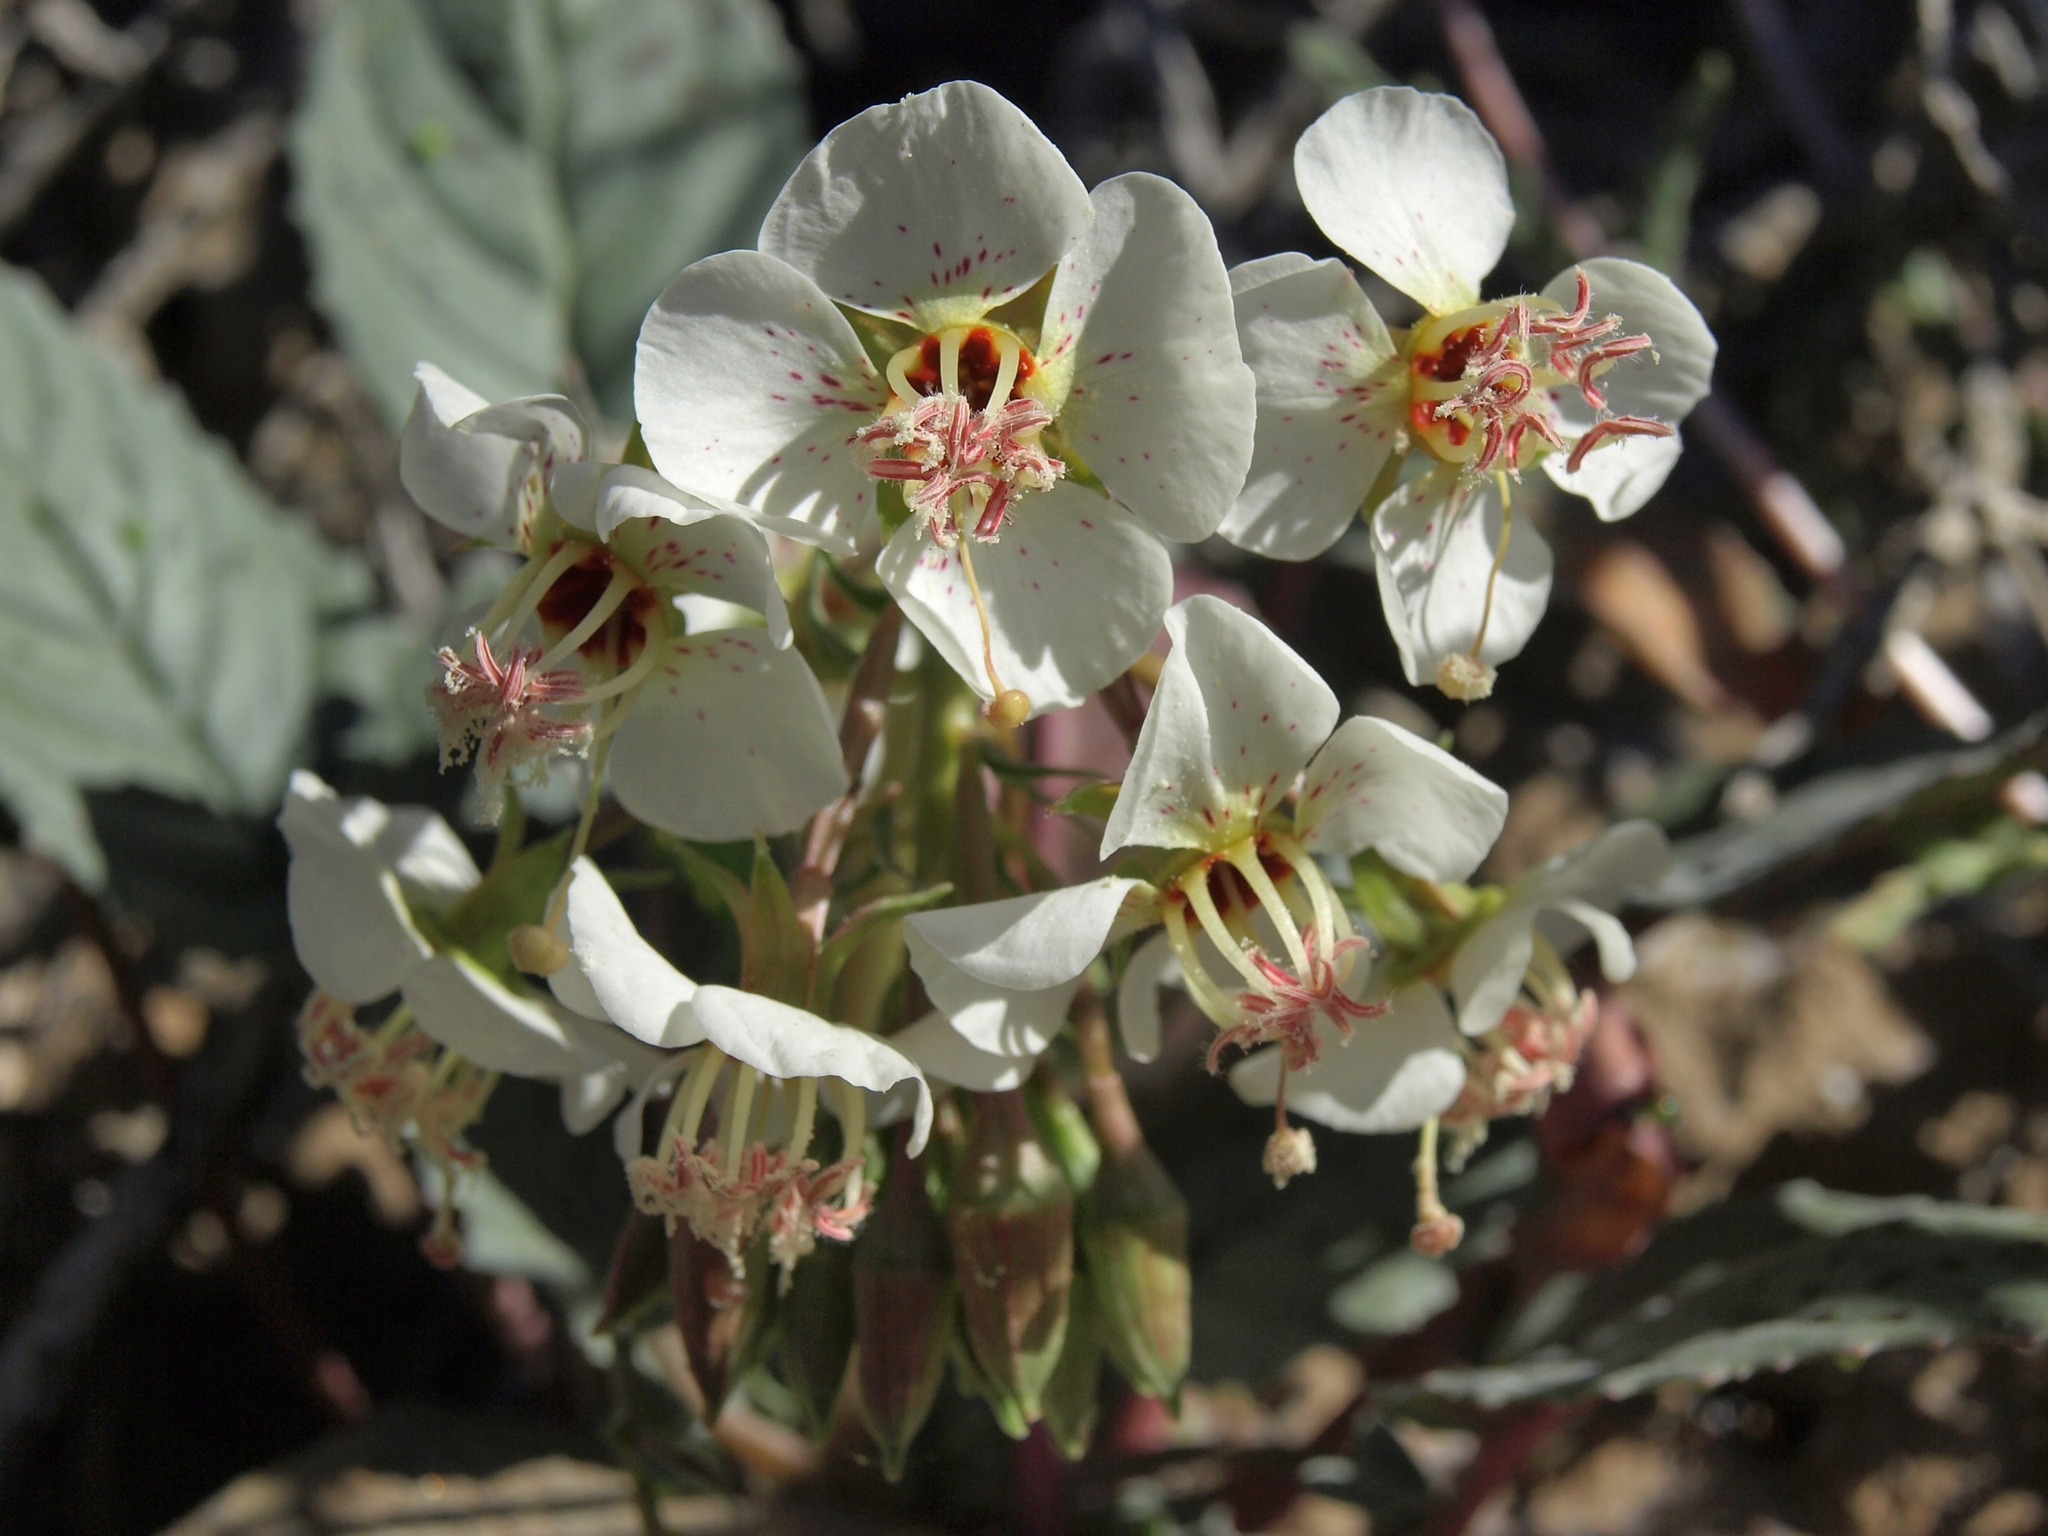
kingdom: Plantae
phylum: Tracheophyta
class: Magnoliopsida
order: Myrtales
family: Onagraceae
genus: Chylismia
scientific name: Chylismia claviformis
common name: Browneyes
